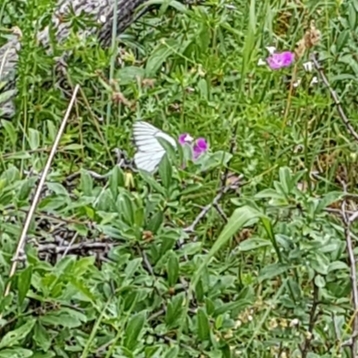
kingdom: Animalia
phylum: Arthropoda
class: Insecta
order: Lepidoptera
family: Pieridae
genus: Aporia
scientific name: Aporia crataegi
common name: Black-veined white
